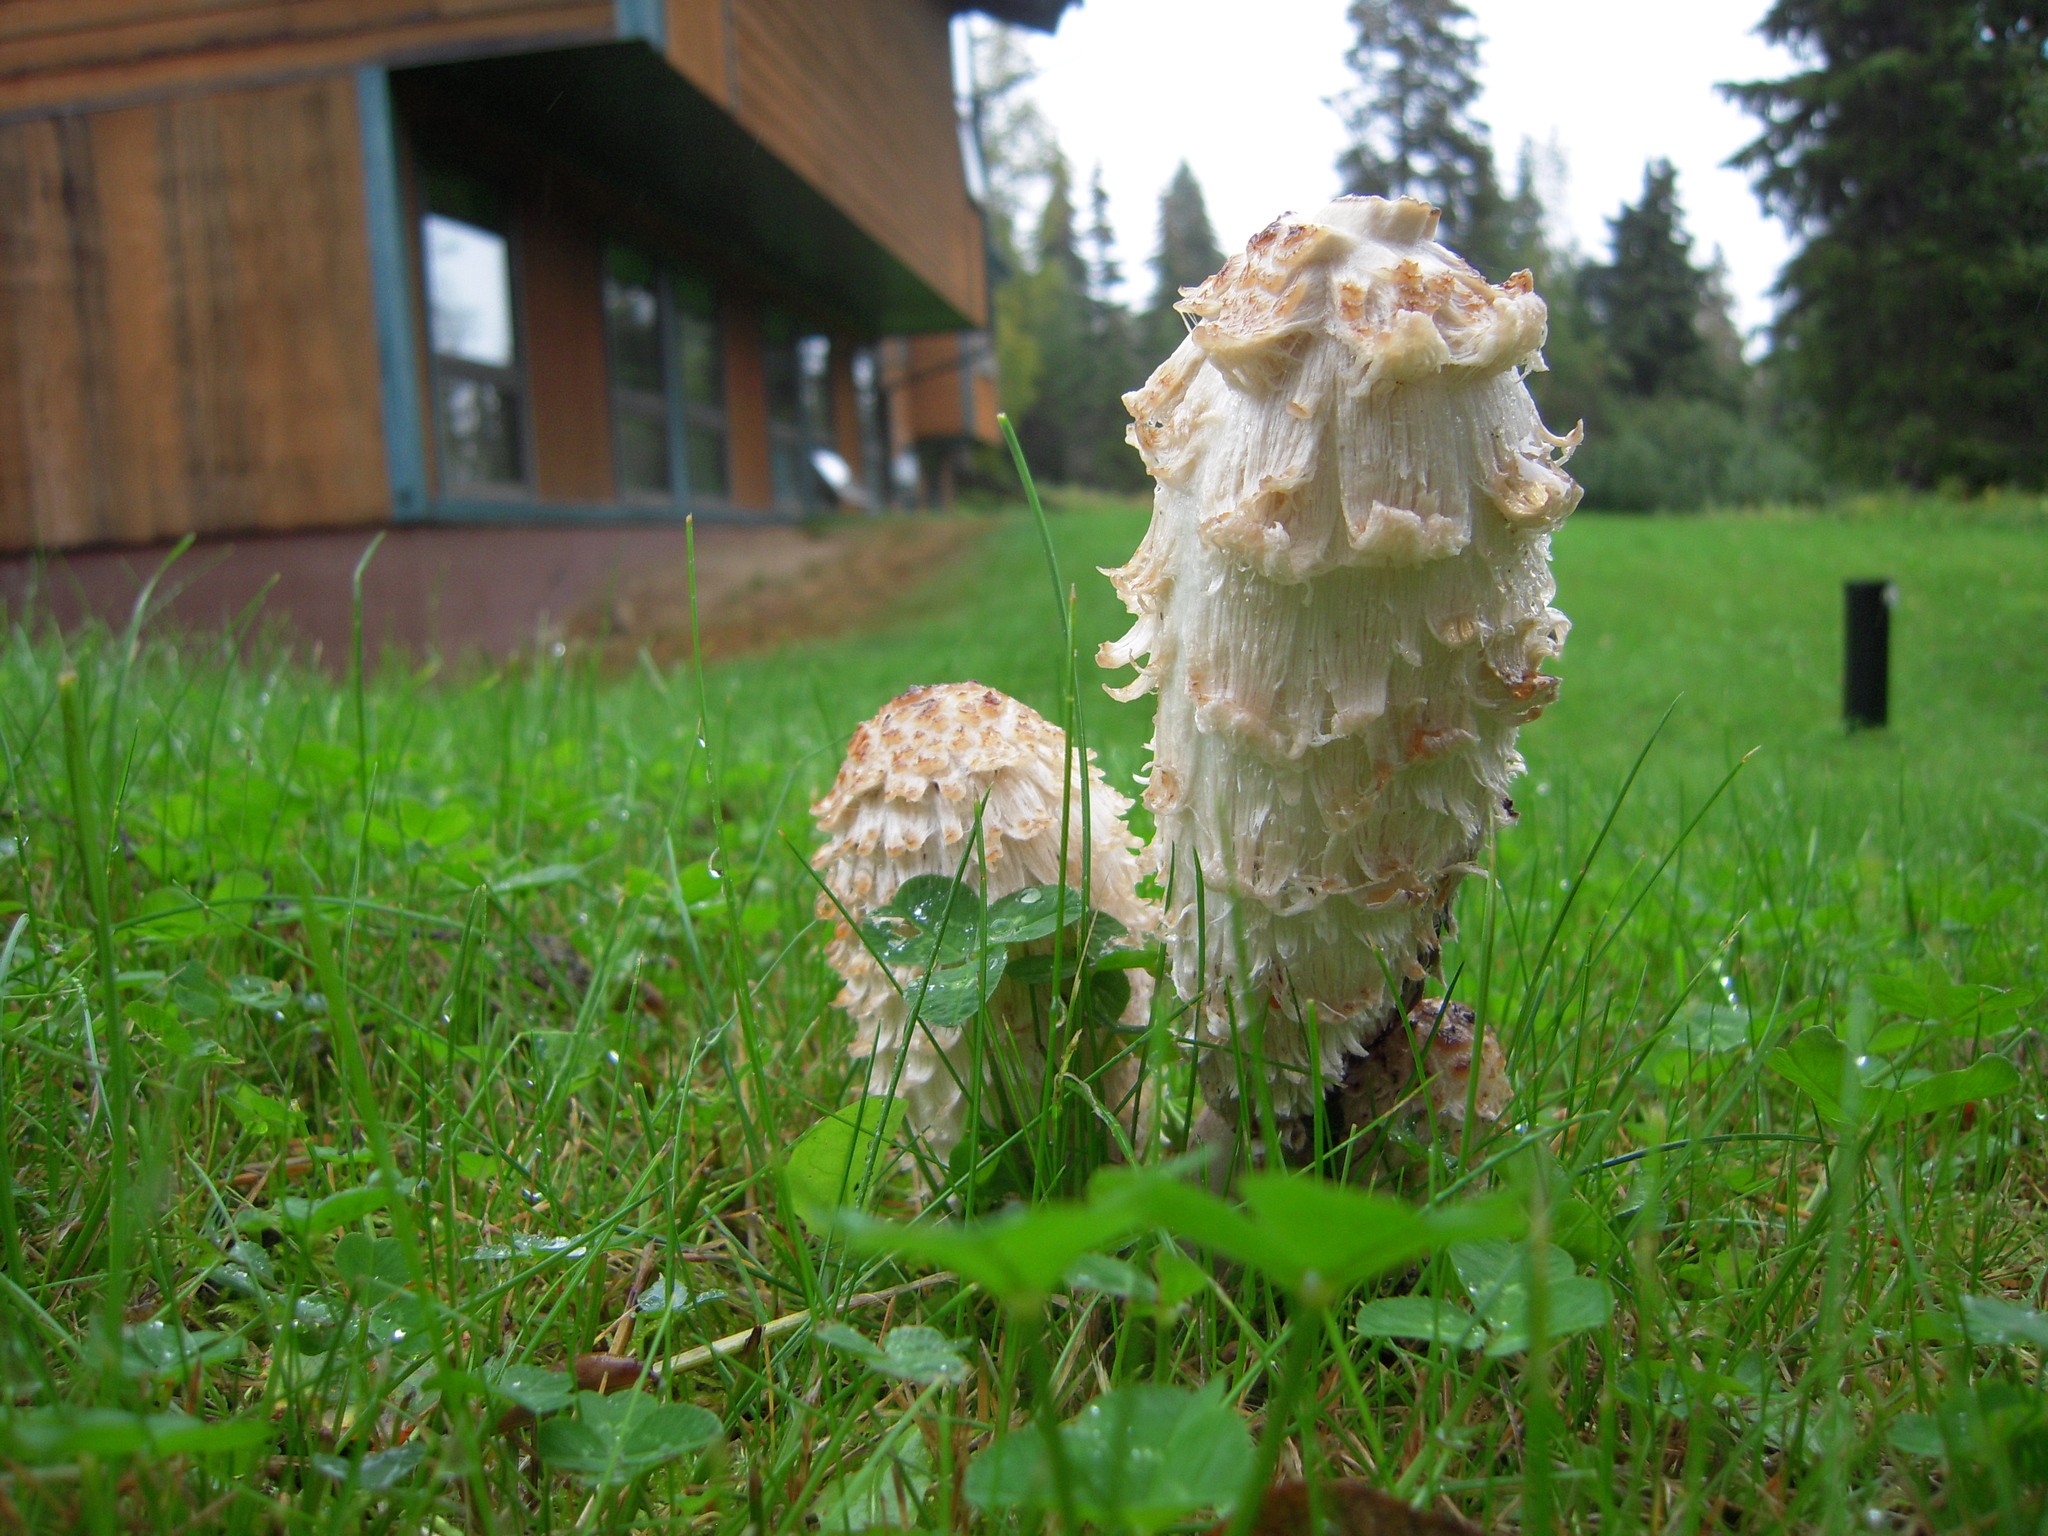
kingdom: Fungi
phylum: Basidiomycota
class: Agaricomycetes
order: Agaricales
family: Agaricaceae
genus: Coprinus
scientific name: Coprinus comatus
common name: Lawyer's wig
